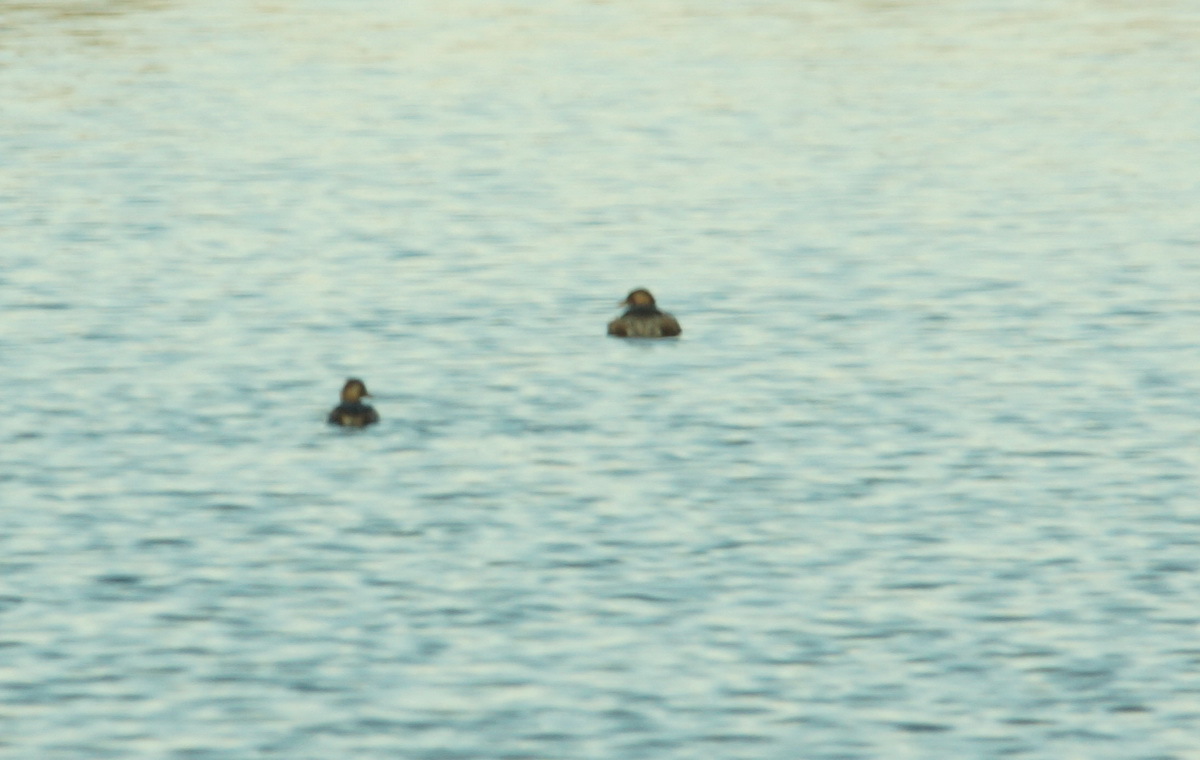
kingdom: Animalia
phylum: Chordata
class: Aves
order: Podicipediformes
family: Podicipedidae
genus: Tachybaptus
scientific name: Tachybaptus ruficollis
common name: Little grebe
